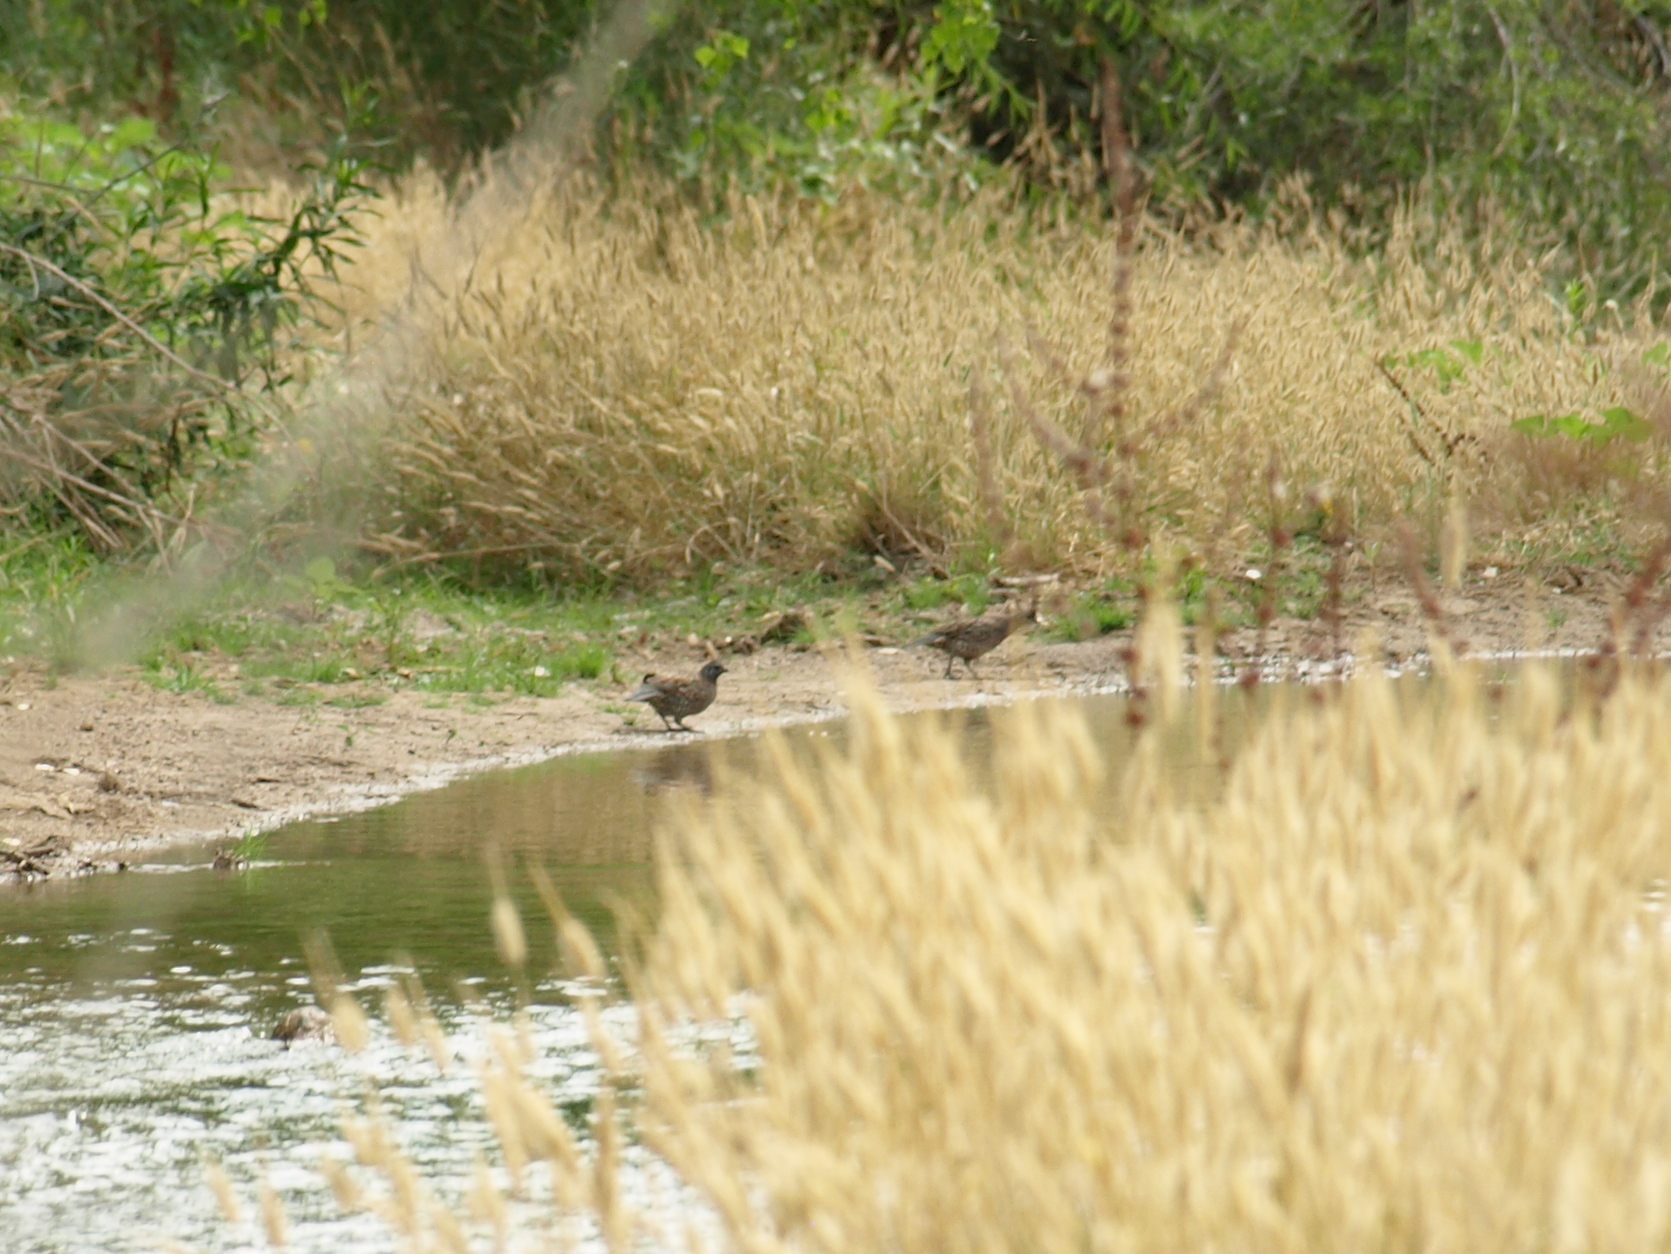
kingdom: Animalia
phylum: Chordata
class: Aves
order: Galliformes
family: Odontophoridae
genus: Callipepla
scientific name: Callipepla douglasii
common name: Elegant quail
